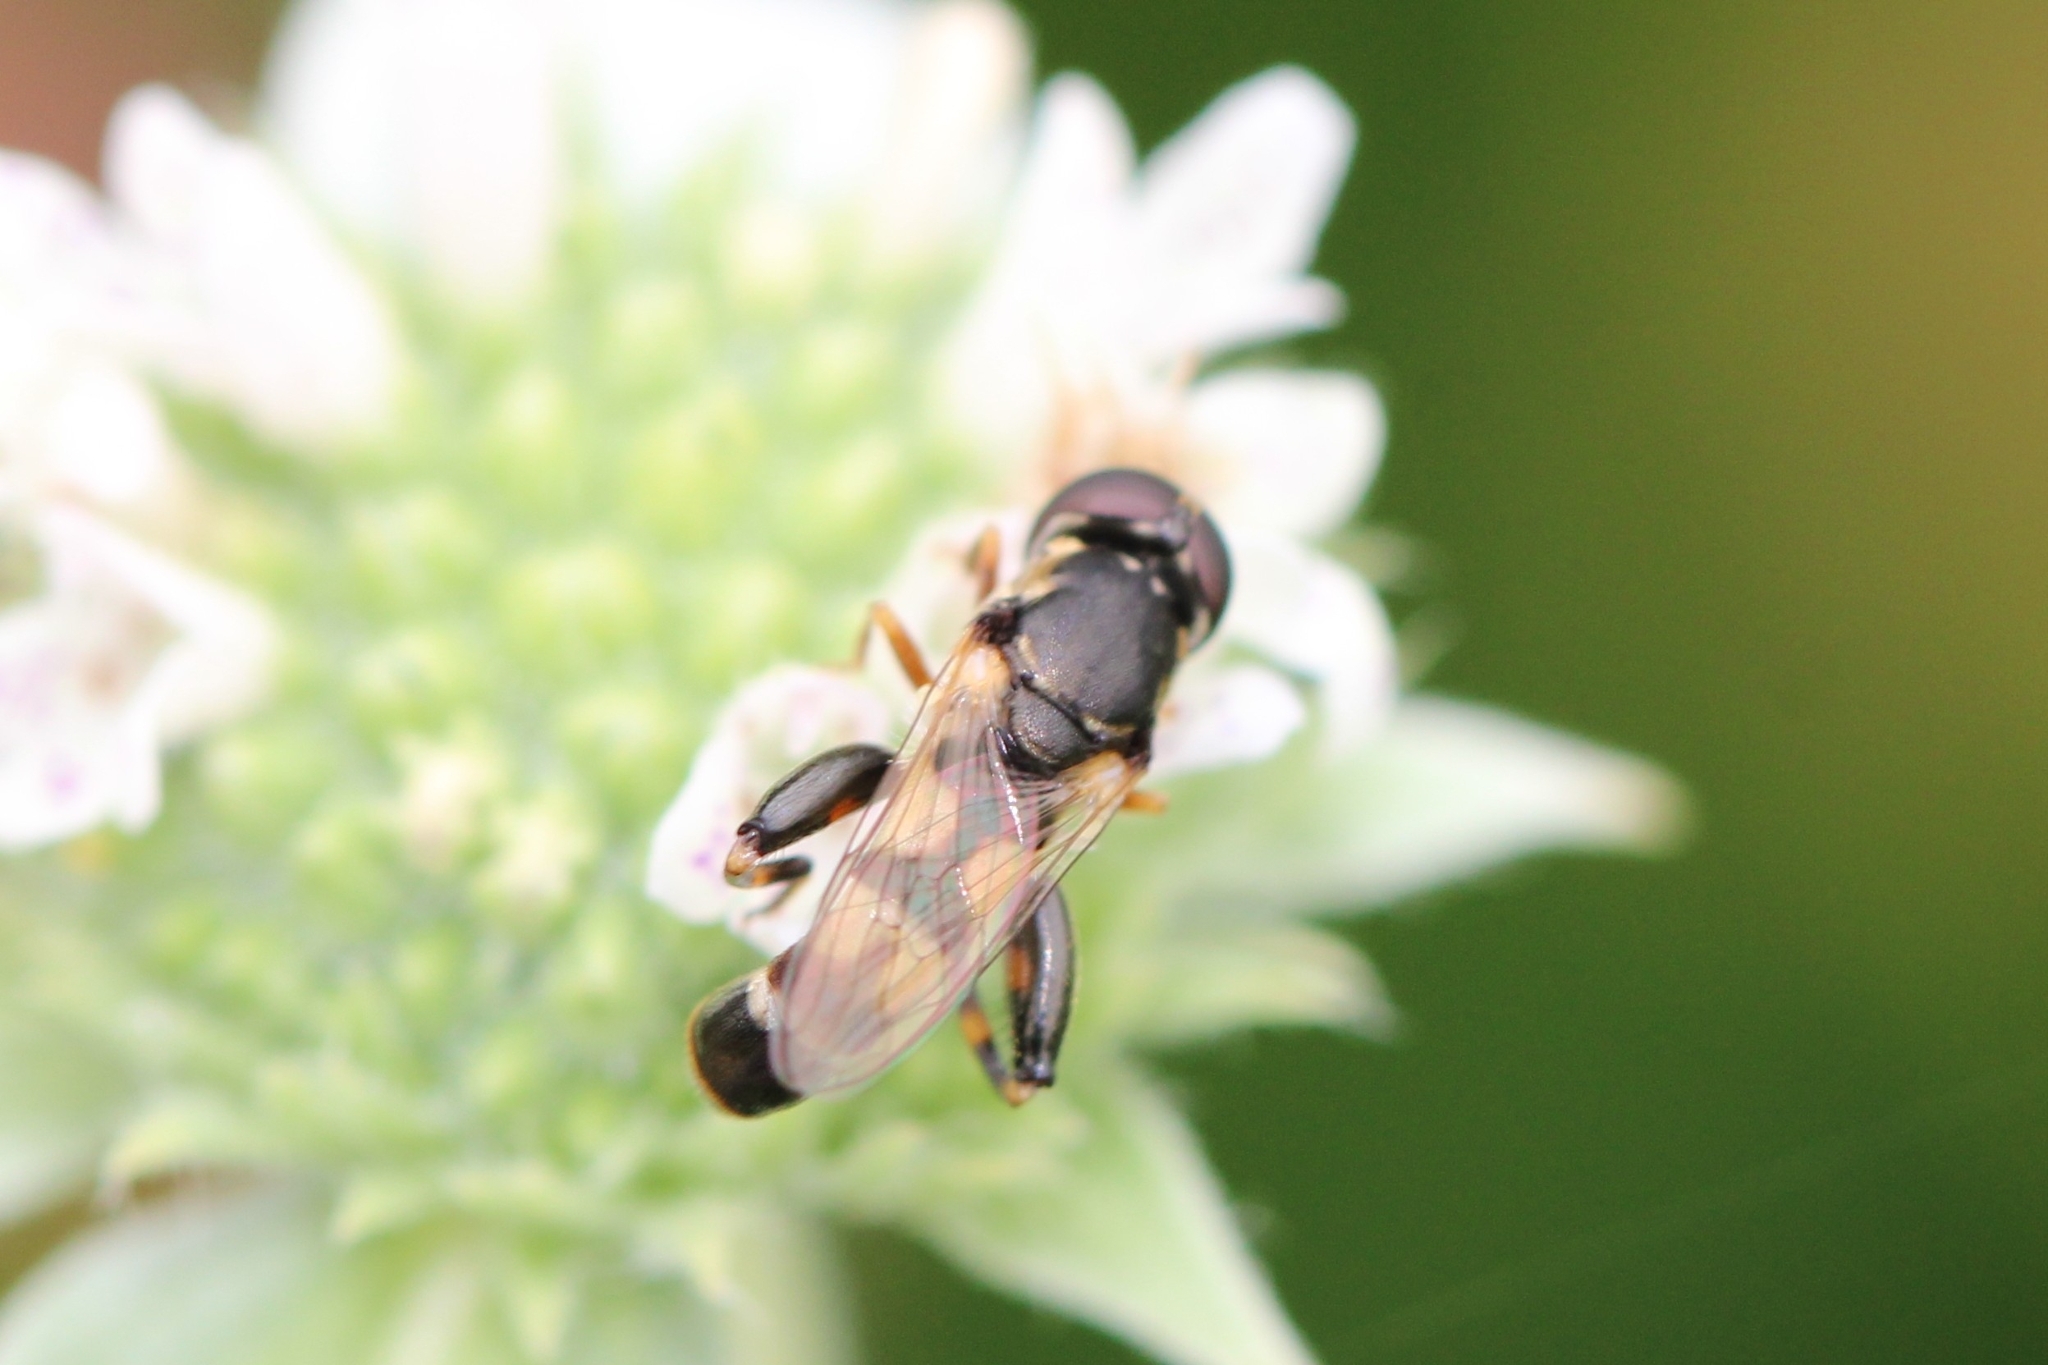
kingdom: Animalia
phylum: Arthropoda
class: Insecta
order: Diptera
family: Syrphidae
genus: Syritta
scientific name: Syritta pipiens
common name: Hover fly
